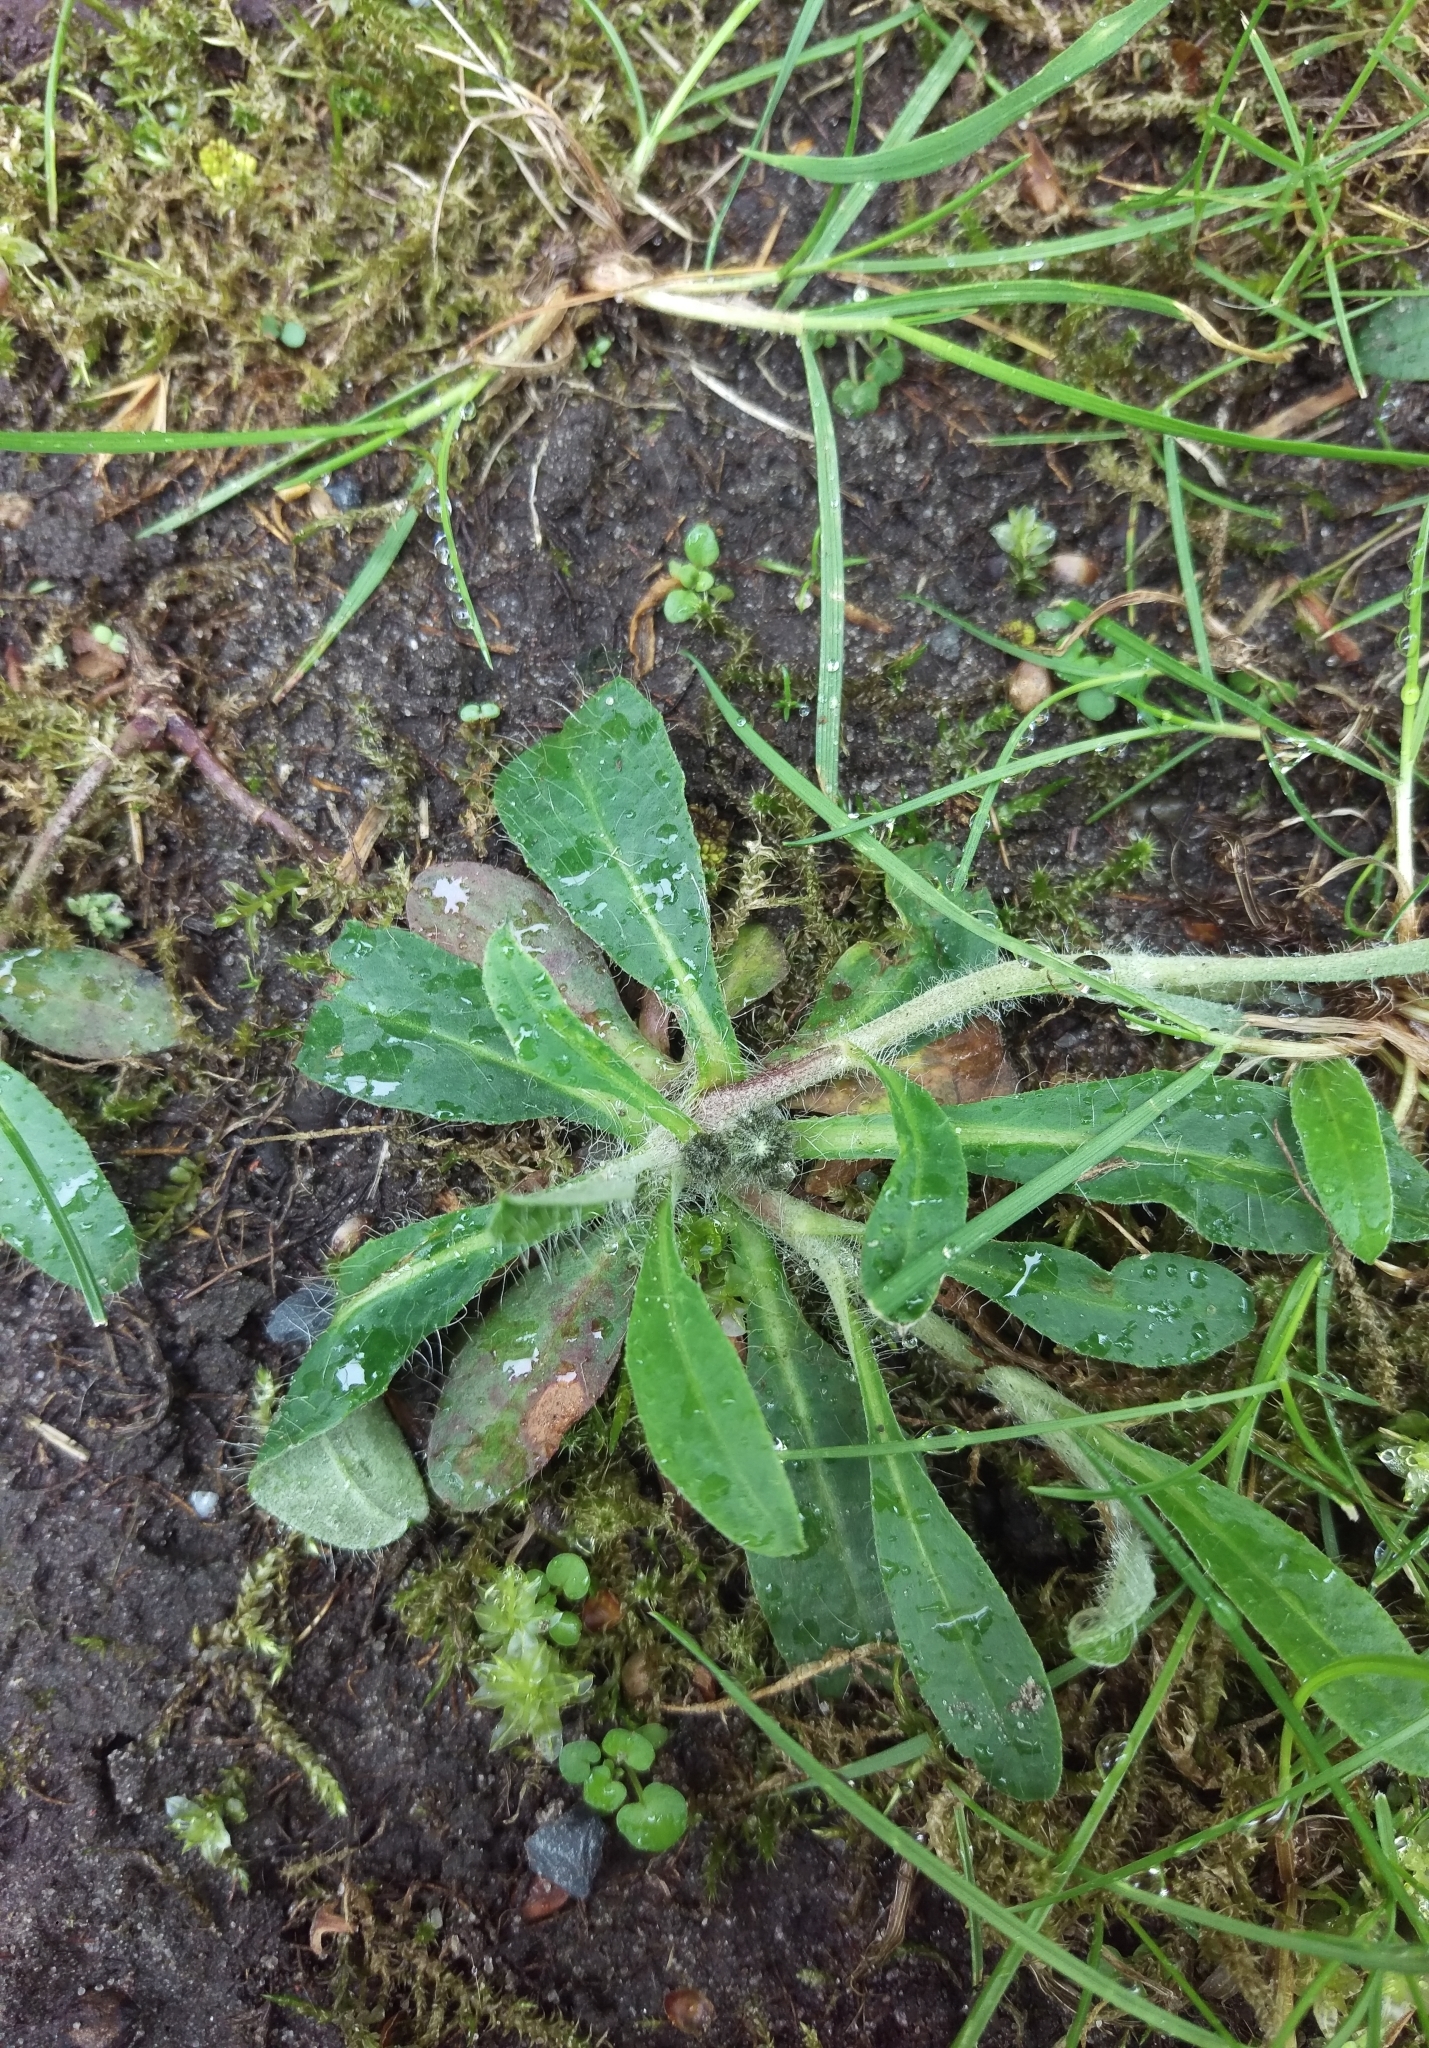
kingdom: Plantae
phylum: Tracheophyta
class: Magnoliopsida
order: Asterales
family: Asteraceae
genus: Pilosella
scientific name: Pilosella officinarum
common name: Mouse-ear hawkweed
